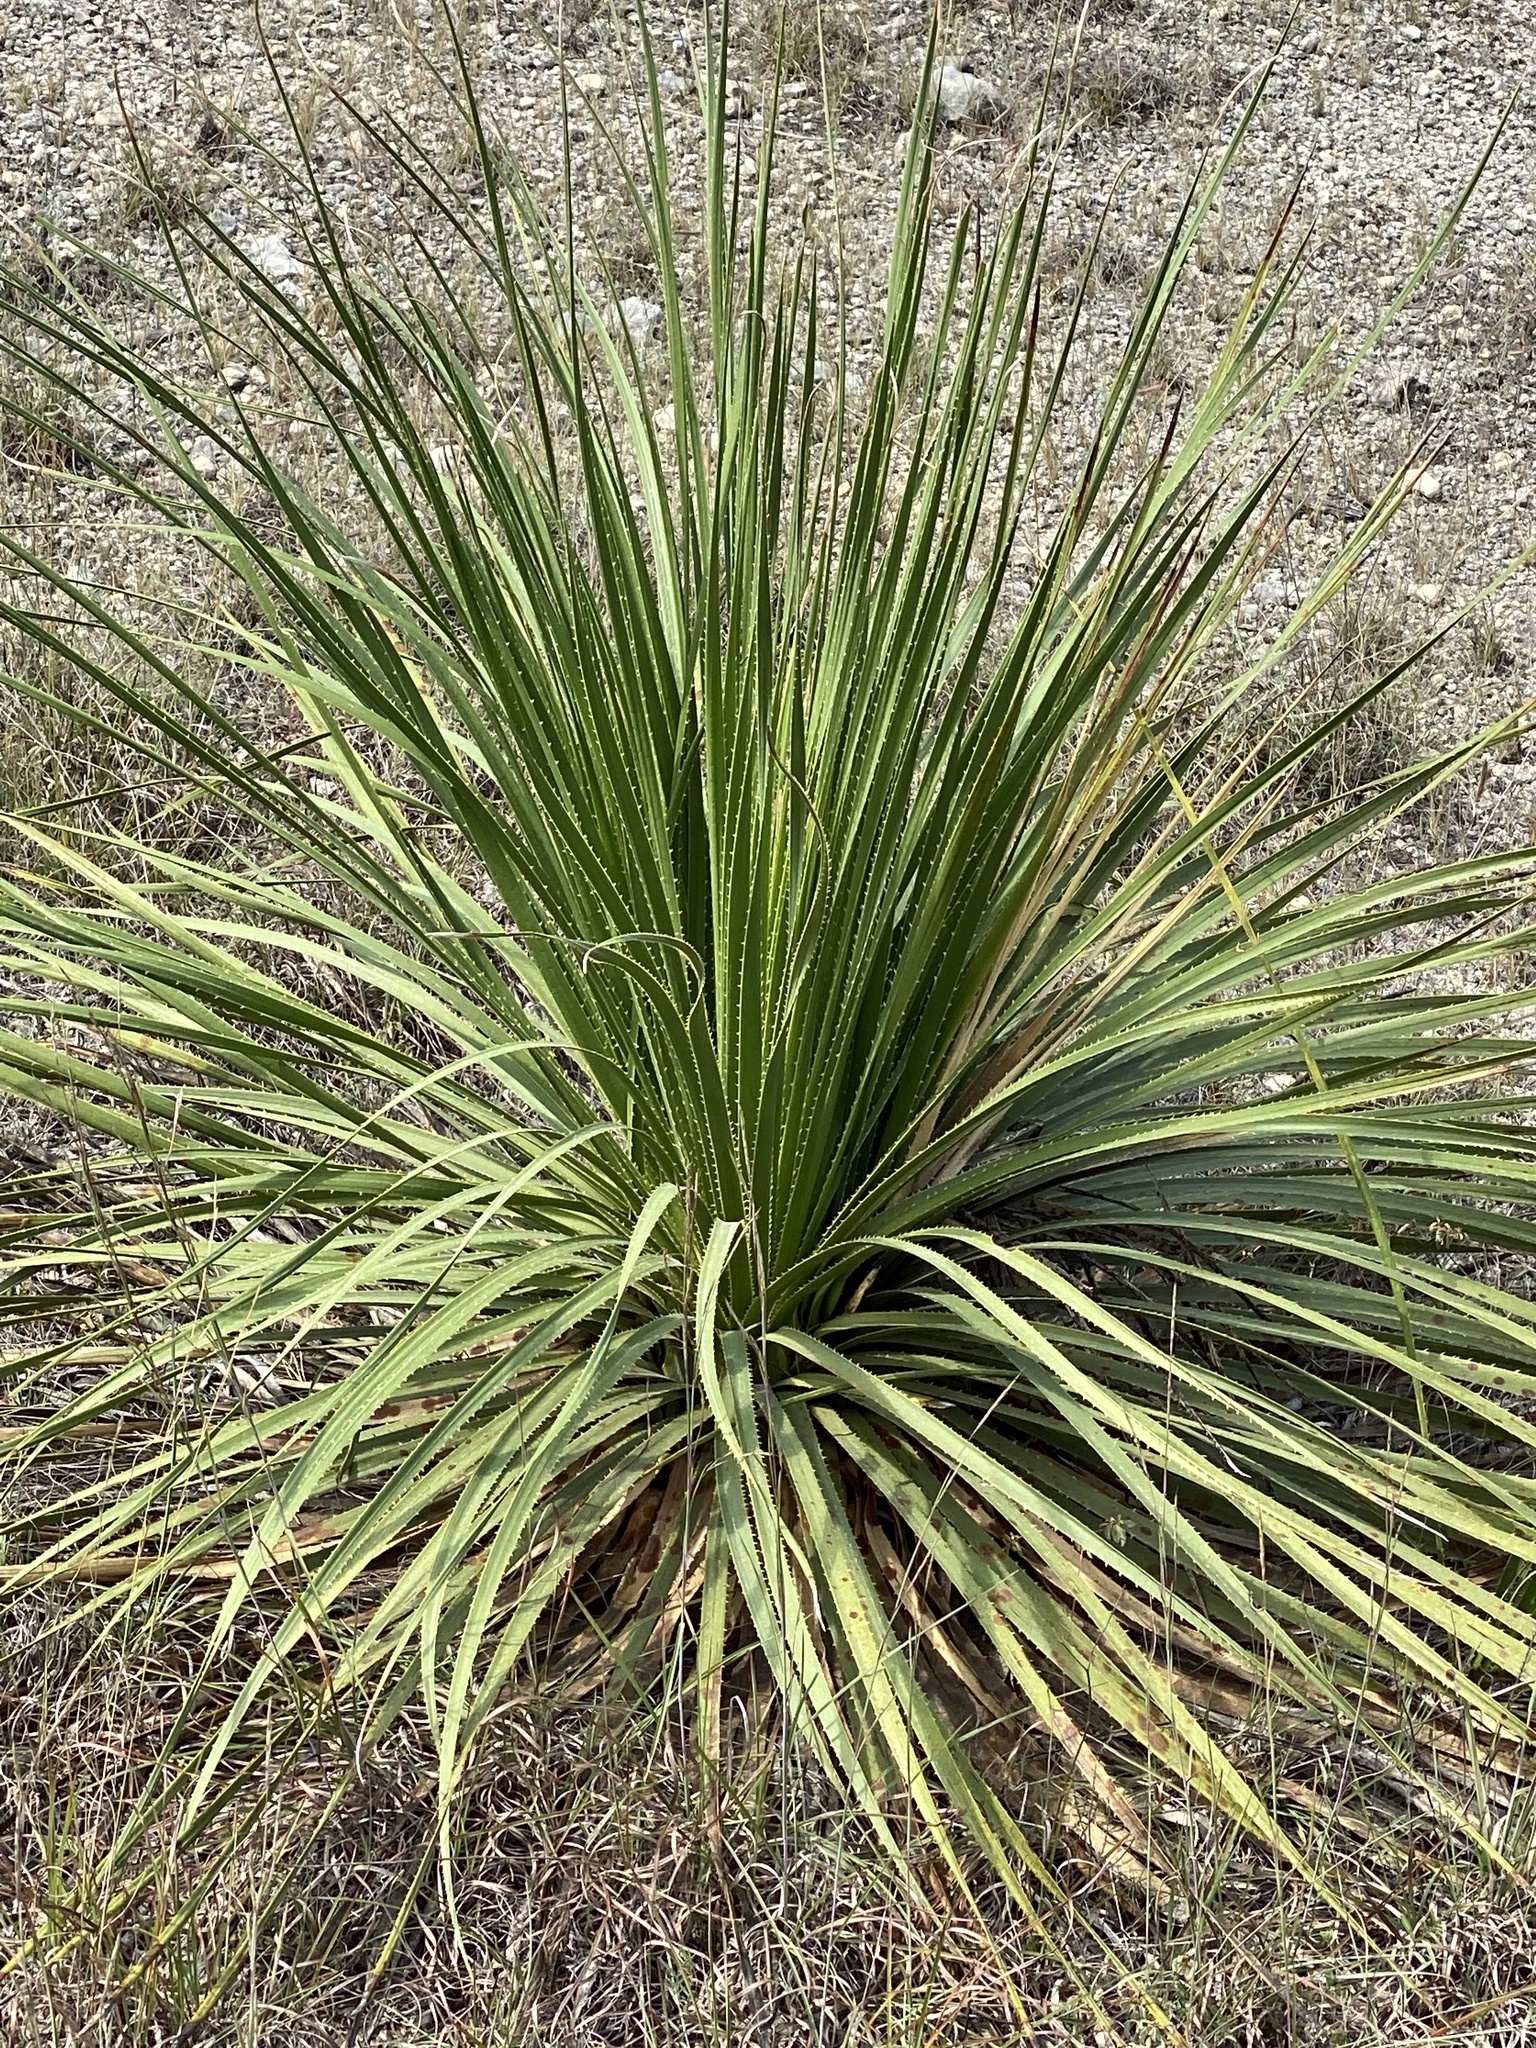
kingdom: Plantae
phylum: Tracheophyta
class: Liliopsida
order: Asparagales
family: Asparagaceae
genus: Dasylirion
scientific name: Dasylirion texanum
